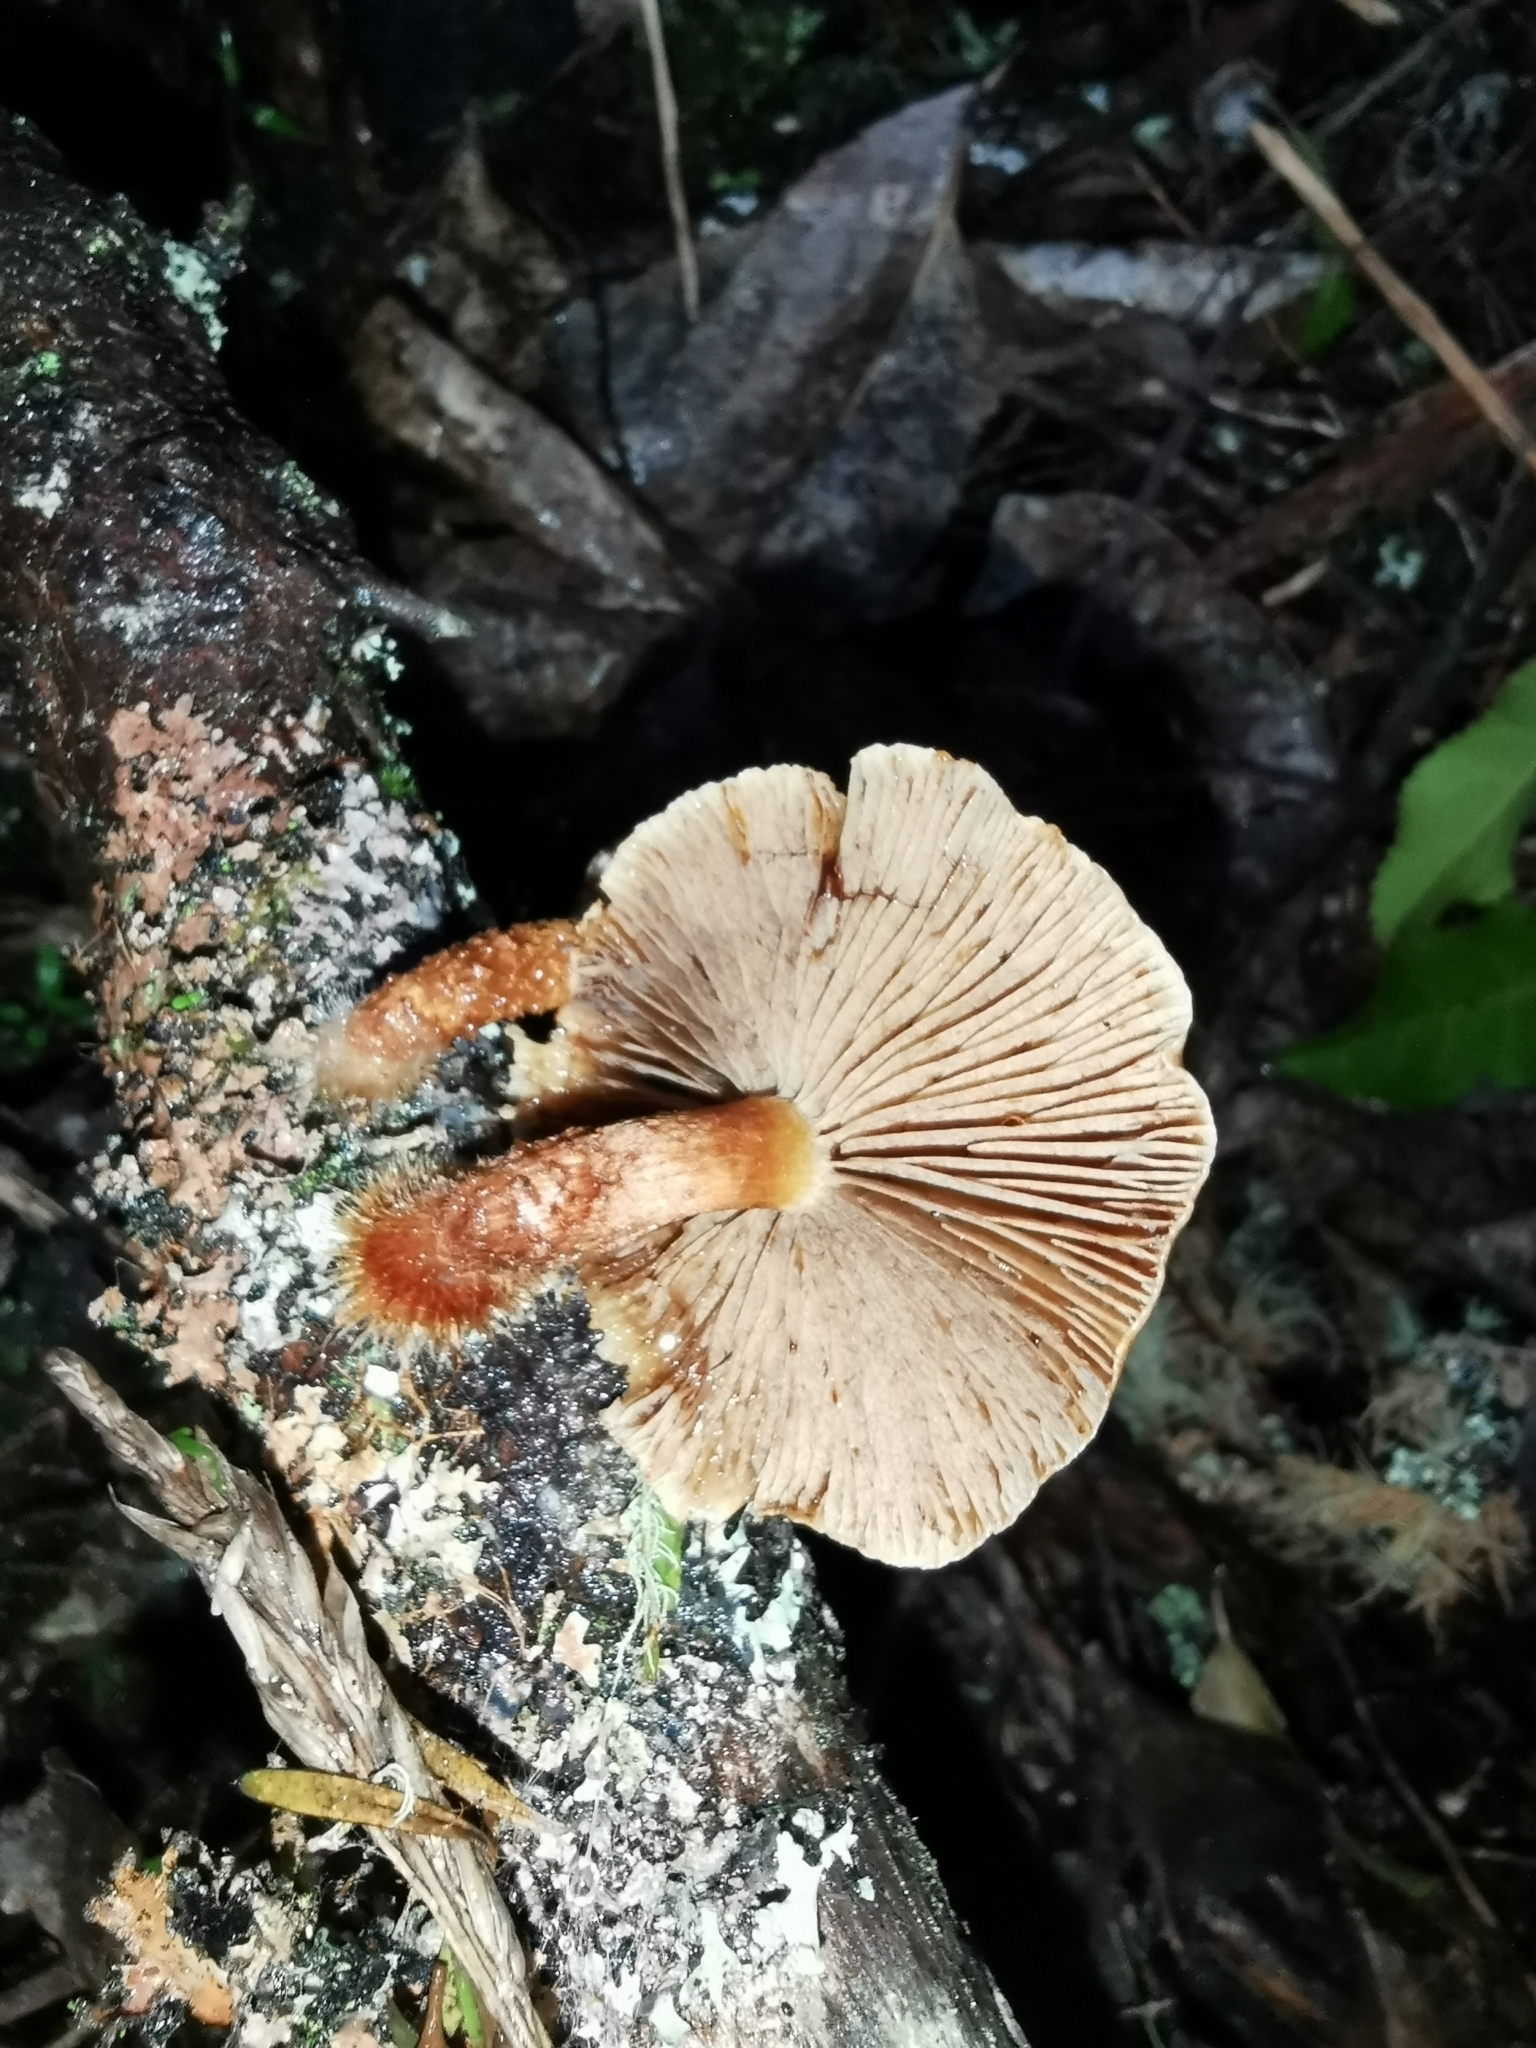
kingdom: Fungi
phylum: Basidiomycota
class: Agaricomycetes
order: Agaricales
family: Strophariaceae
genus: Pholiota
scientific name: Pholiota multicingulata
